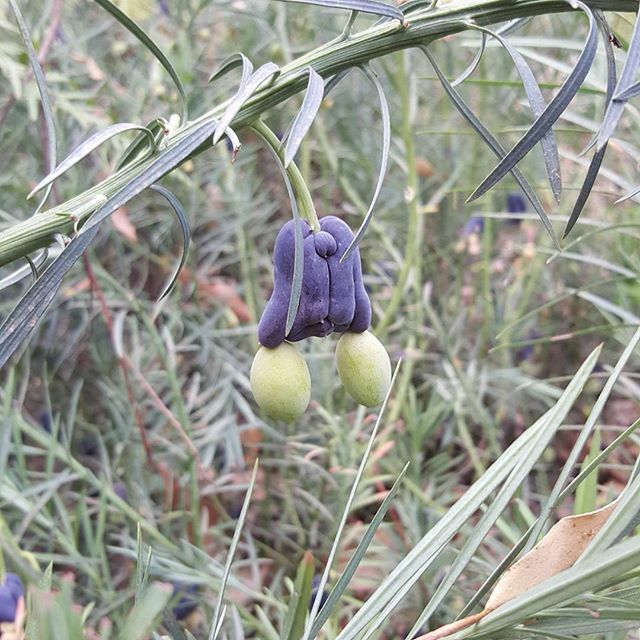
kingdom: Plantae
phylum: Tracheophyta
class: Pinopsida
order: Pinales
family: Podocarpaceae
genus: Podocarpus
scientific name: Podocarpus drouynianus
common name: Emu berry
